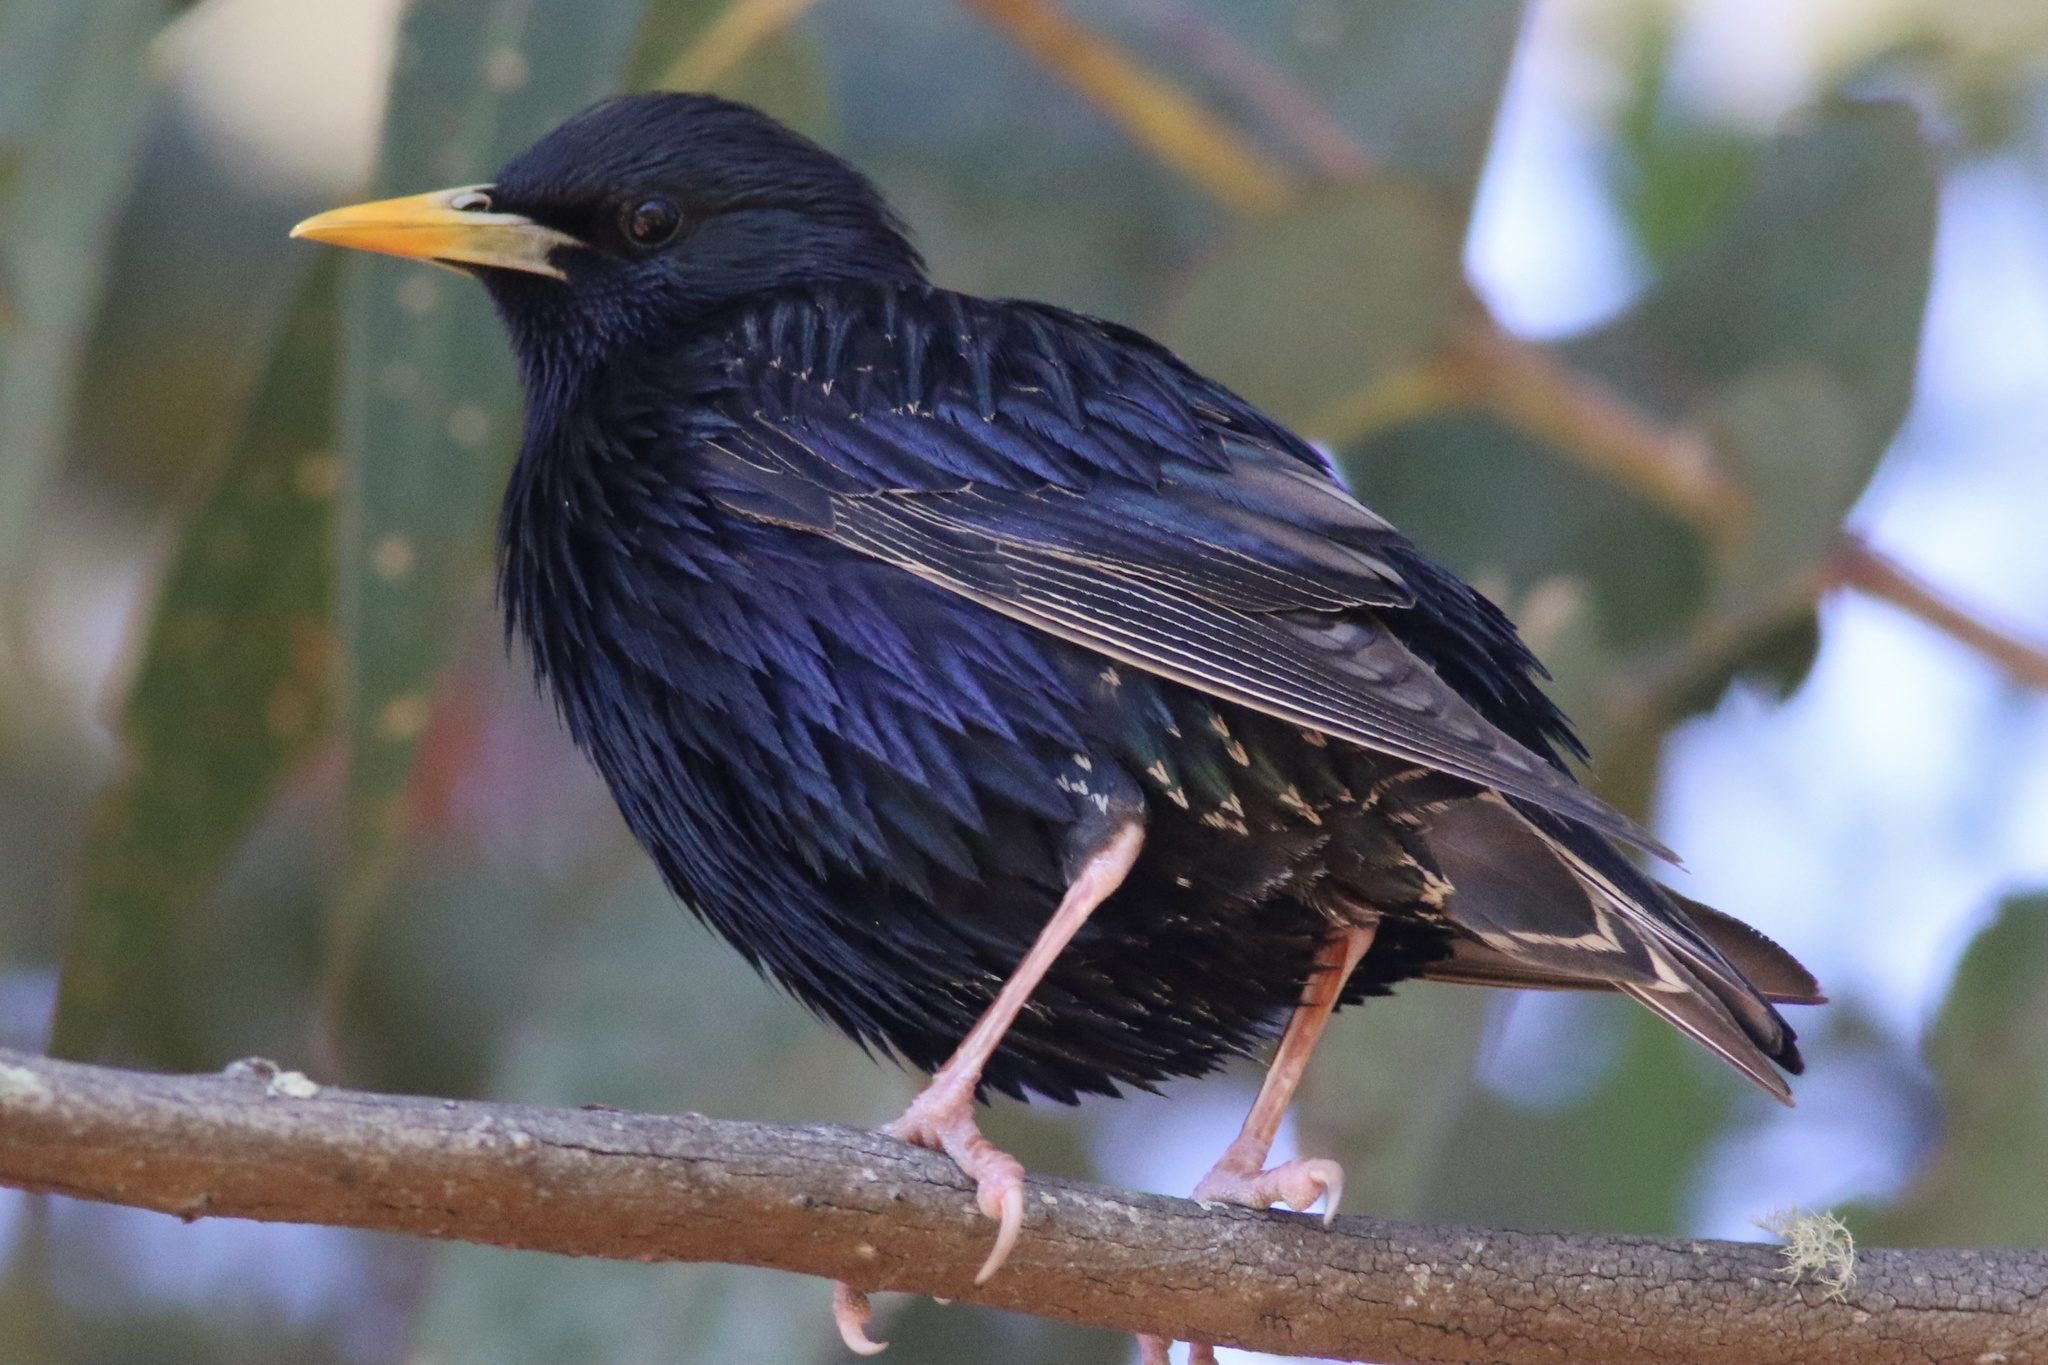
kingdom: Animalia
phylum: Chordata
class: Aves
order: Passeriformes
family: Sturnidae
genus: Sturnus
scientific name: Sturnus vulgaris
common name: Common starling
